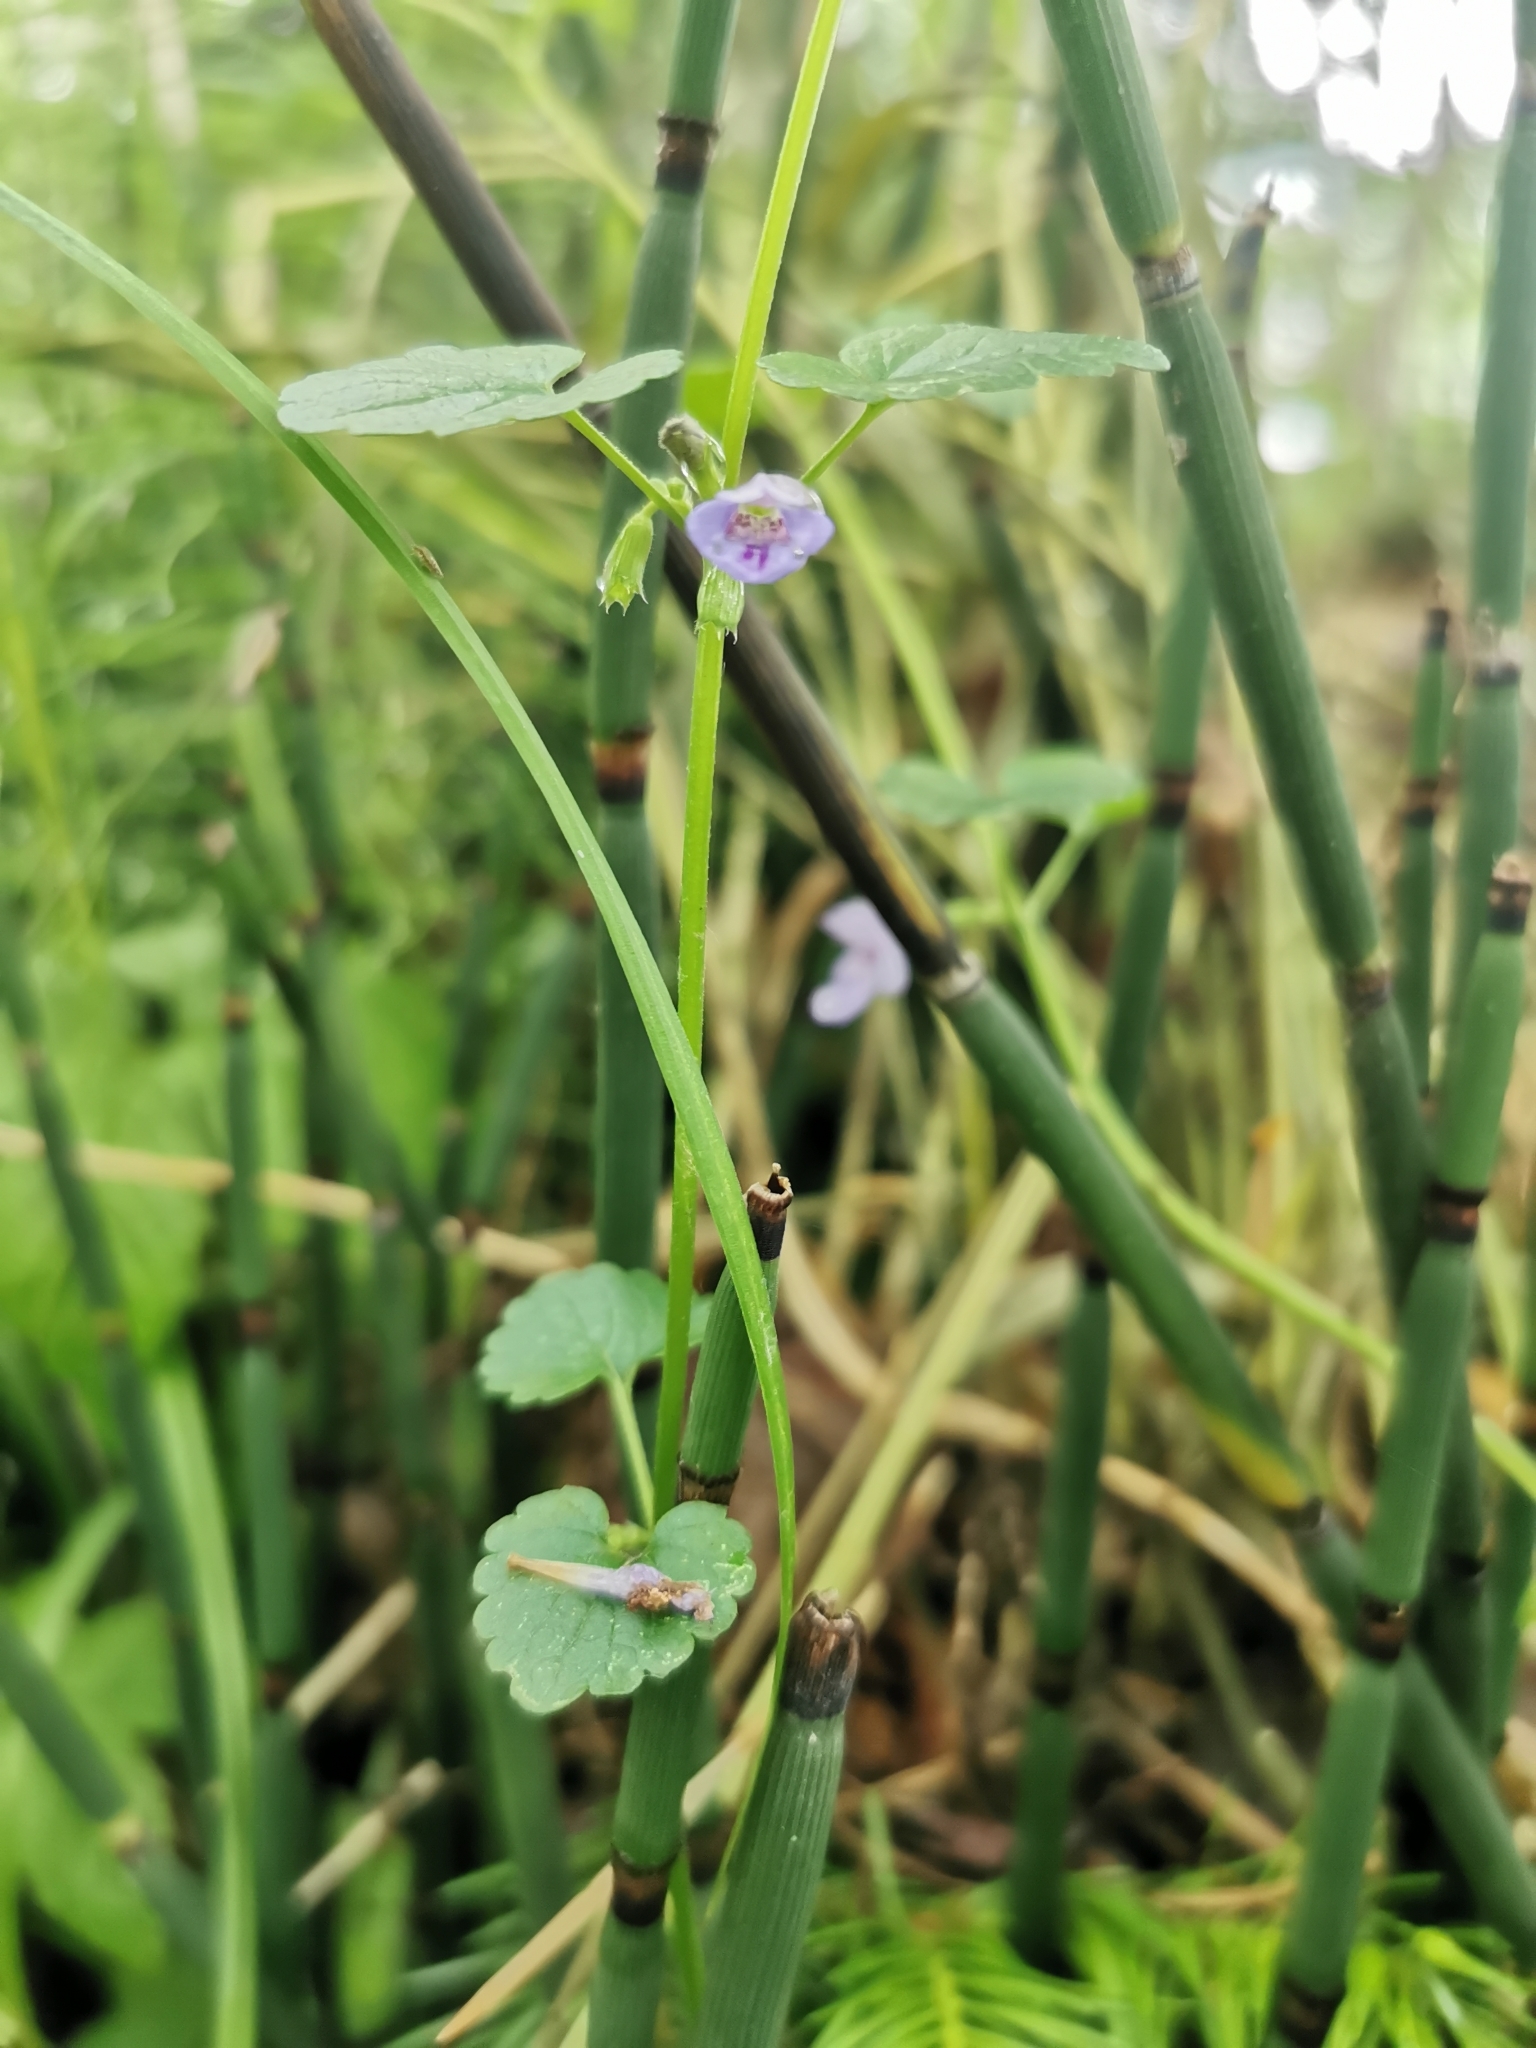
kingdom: Plantae
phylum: Tracheophyta
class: Magnoliopsida
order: Lamiales
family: Lamiaceae
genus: Glechoma
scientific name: Glechoma hederacea
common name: Ground ivy
